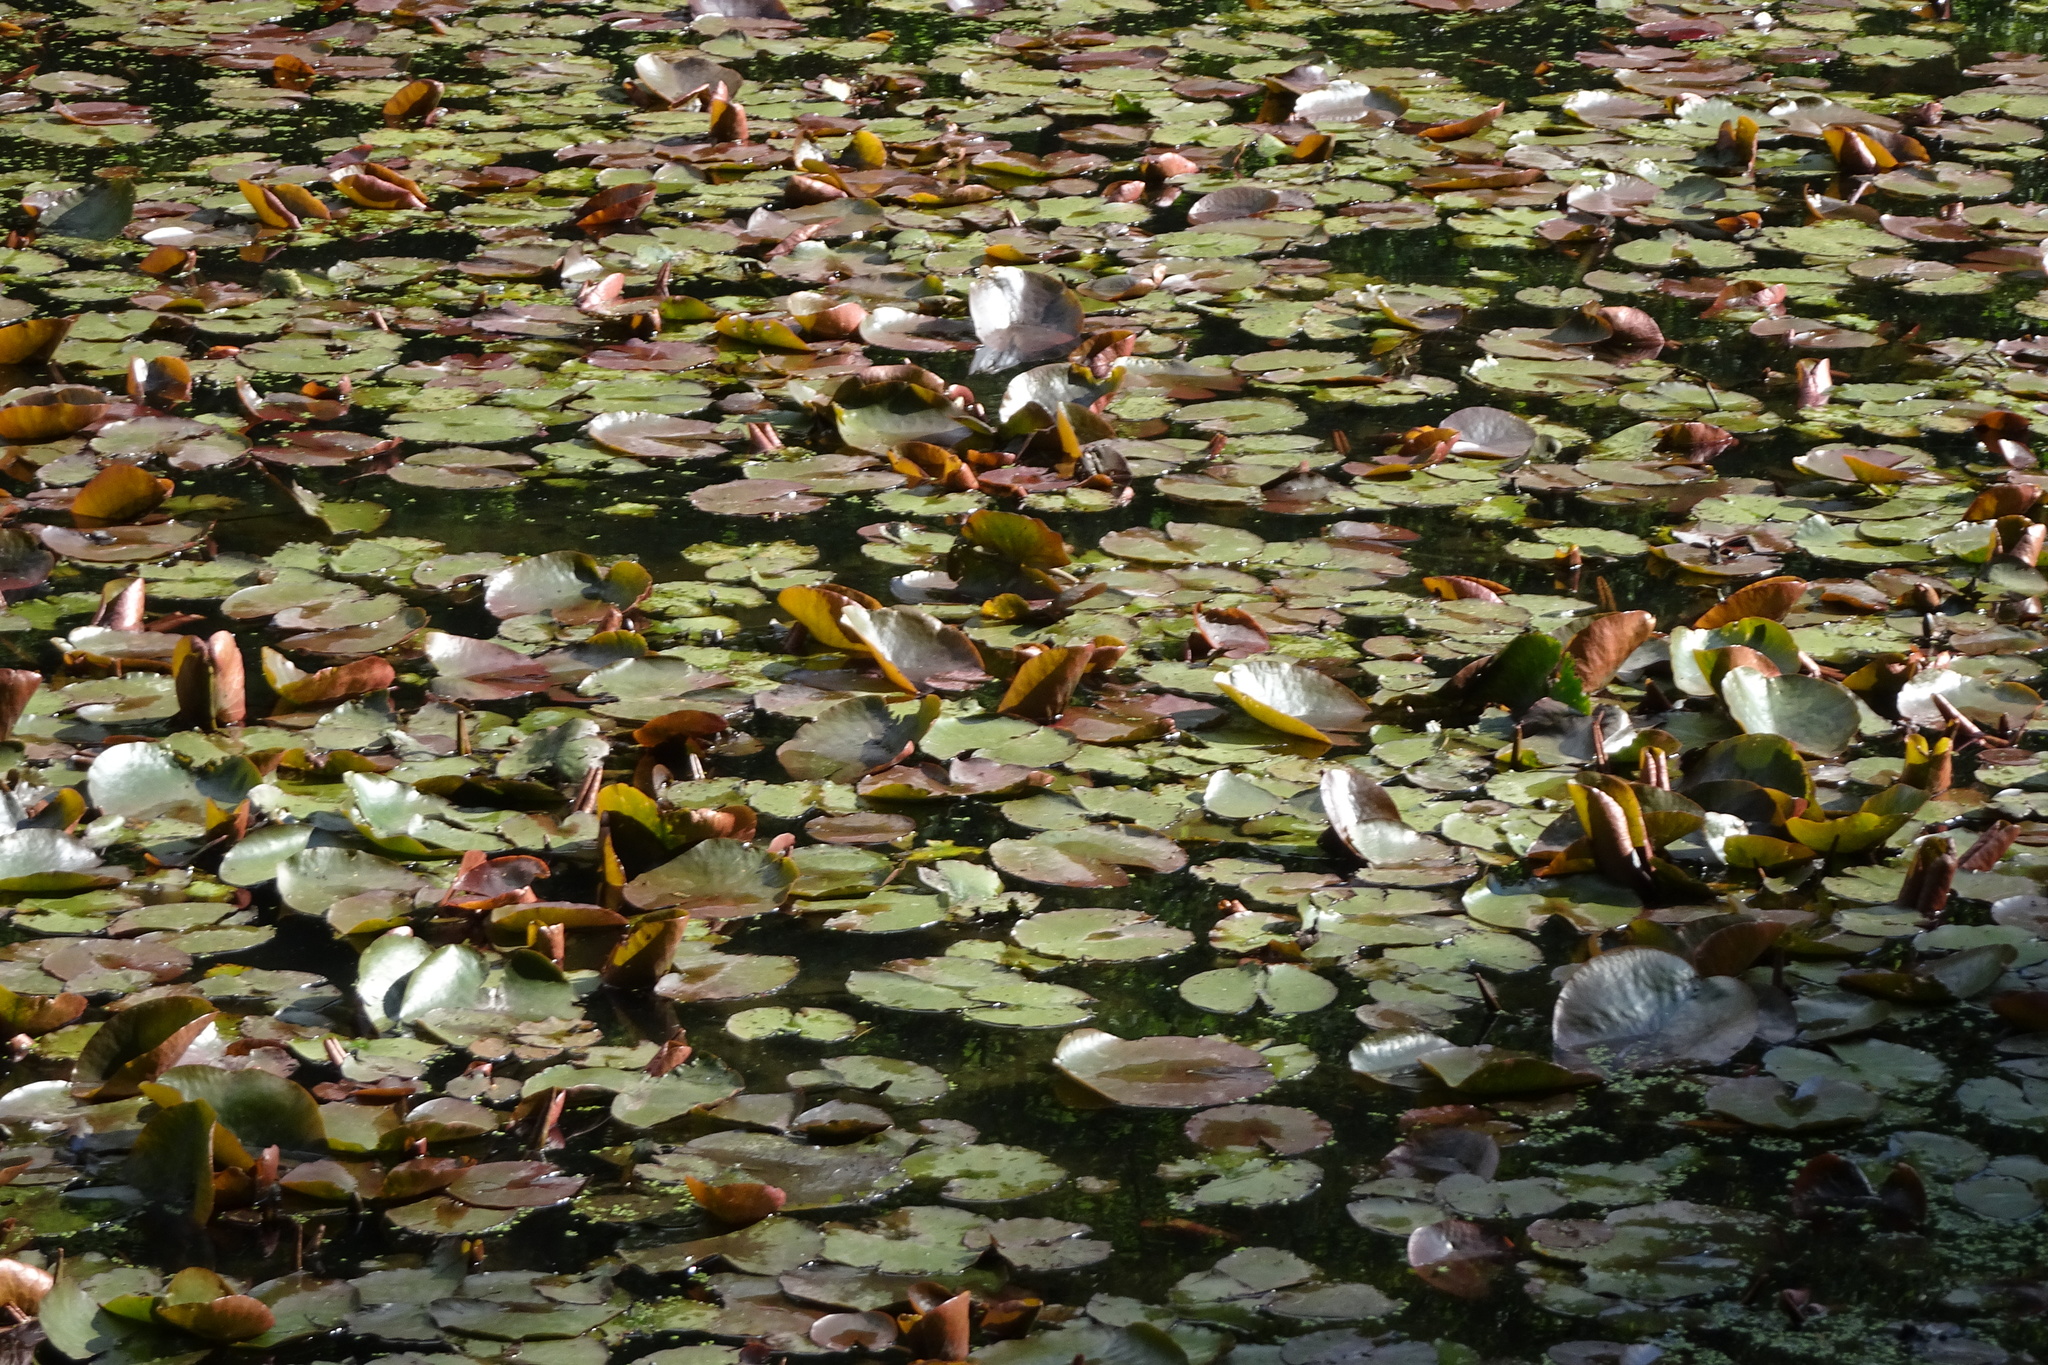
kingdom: Plantae
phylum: Tracheophyta
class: Magnoliopsida
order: Nymphaeales
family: Nymphaeaceae
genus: Nymphaea
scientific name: Nymphaea alba
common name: White water-lily
